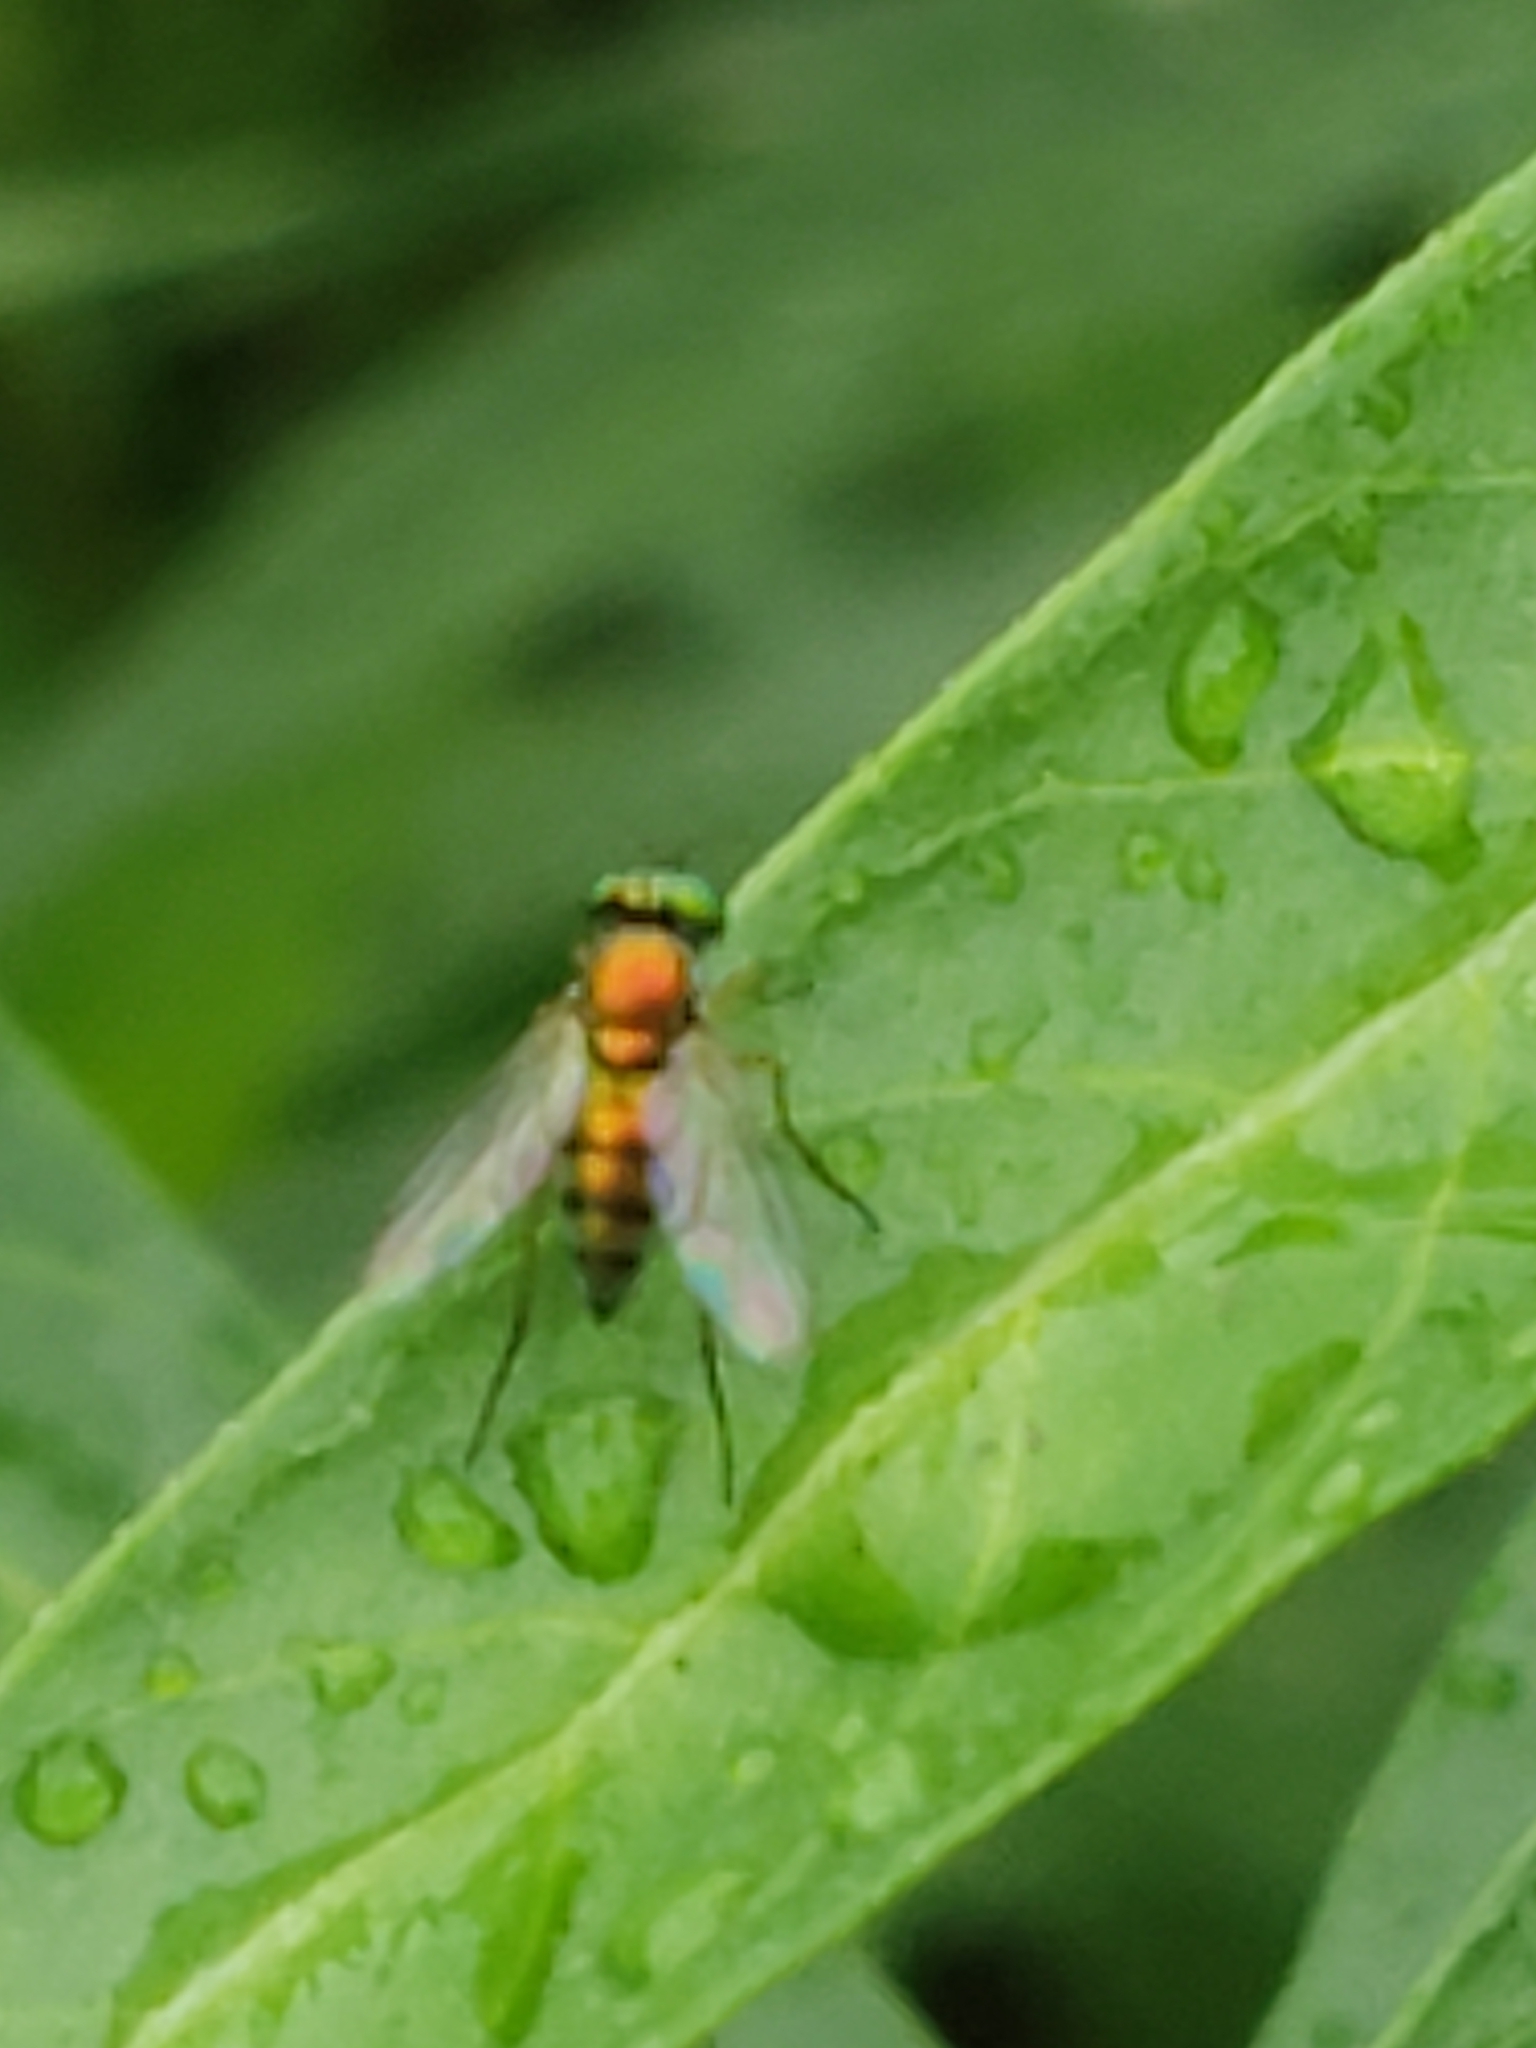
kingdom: Animalia
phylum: Arthropoda
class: Insecta
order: Diptera
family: Dolichopodidae
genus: Condylostylus
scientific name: Condylostylus
